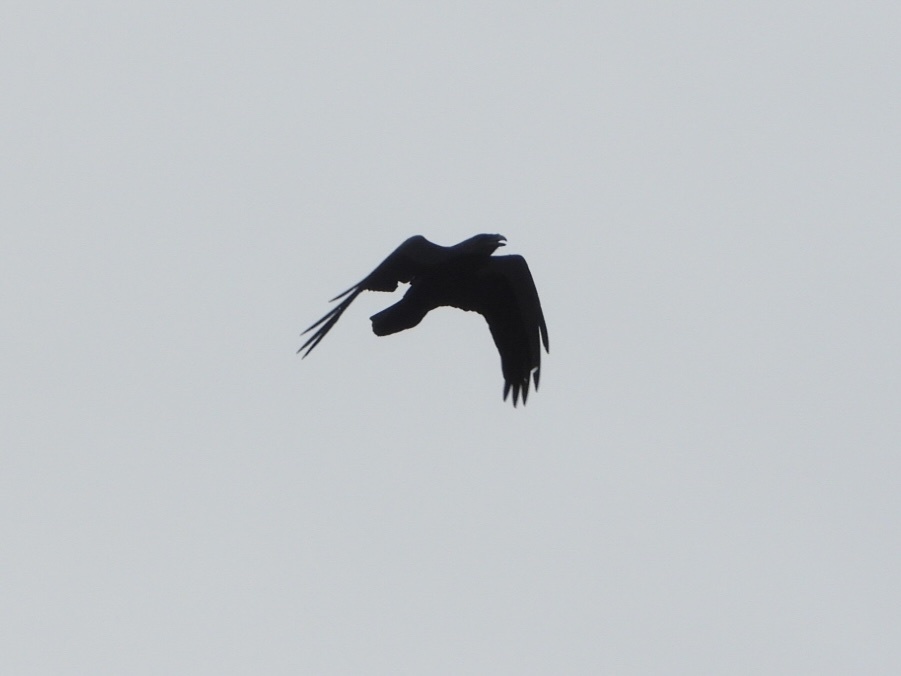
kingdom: Animalia
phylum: Chordata
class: Aves
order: Passeriformes
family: Corvidae
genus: Corvus
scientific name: Corvus corax
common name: Common raven
